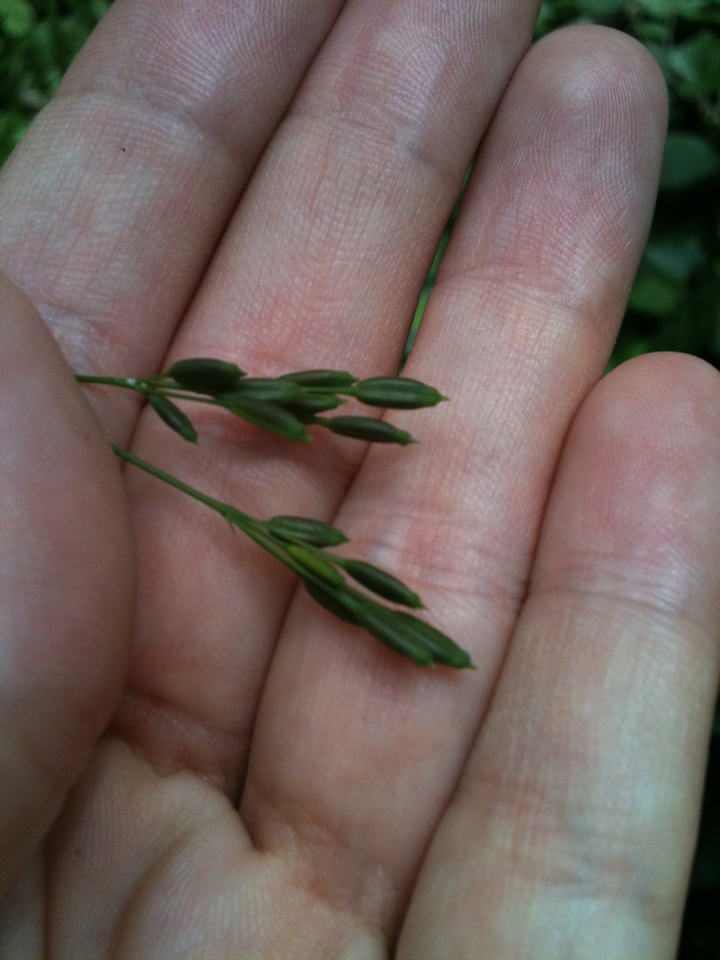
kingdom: Plantae
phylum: Tracheophyta
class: Magnoliopsida
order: Apiales
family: Apiaceae
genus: Cryptotaenia
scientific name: Cryptotaenia canadensis
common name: Honewort
